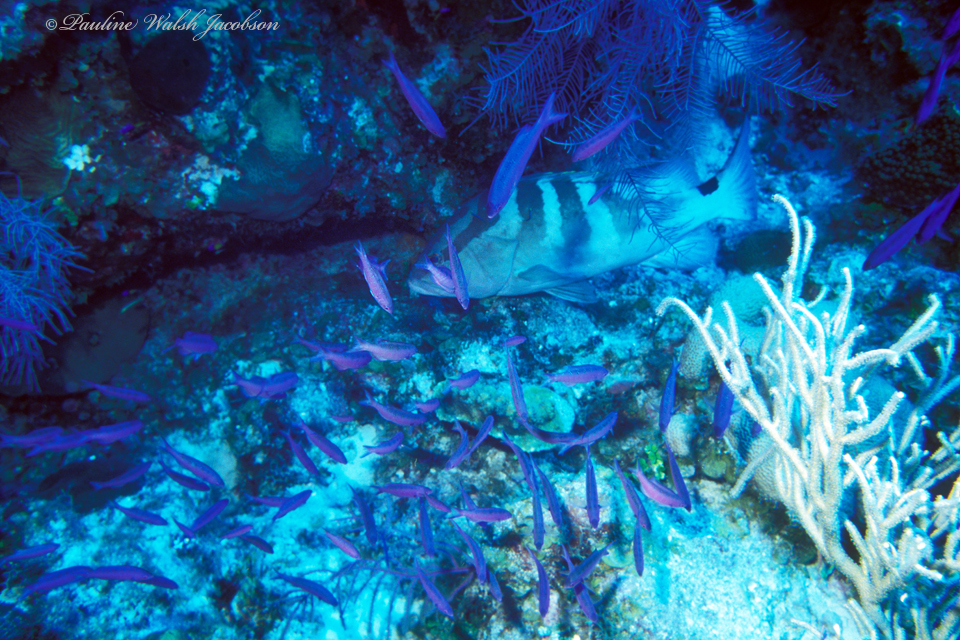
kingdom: Animalia
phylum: Chordata
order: Perciformes
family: Serranidae
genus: Epinephelus
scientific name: Epinephelus striatus
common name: Nassau grouper
